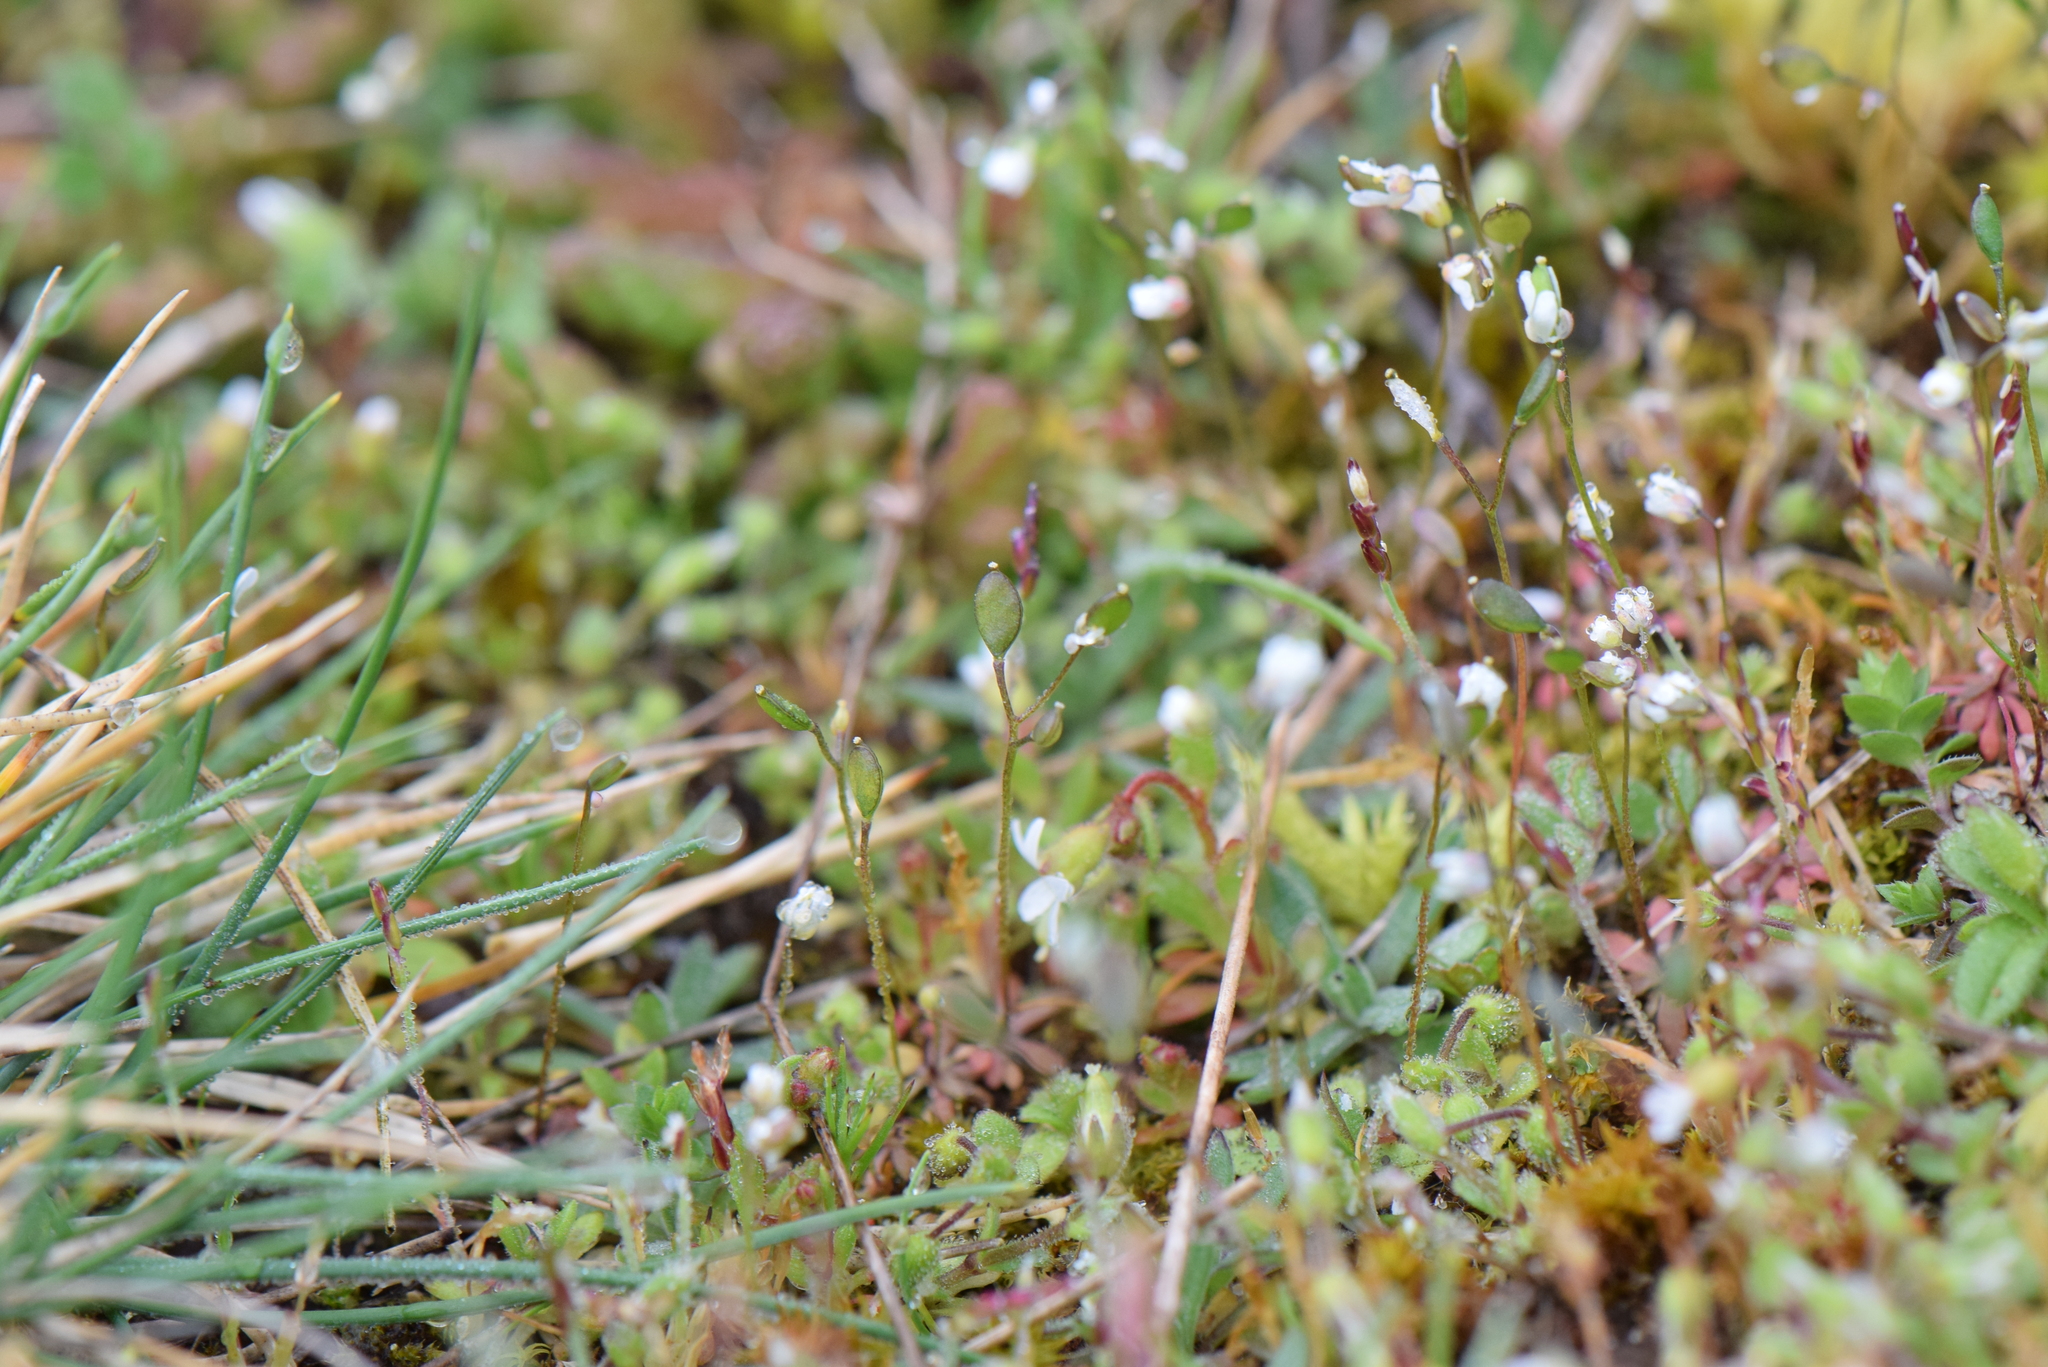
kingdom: Plantae
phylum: Tracheophyta
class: Magnoliopsida
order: Brassicales
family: Brassicaceae
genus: Draba
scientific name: Draba verna
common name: Spring draba
